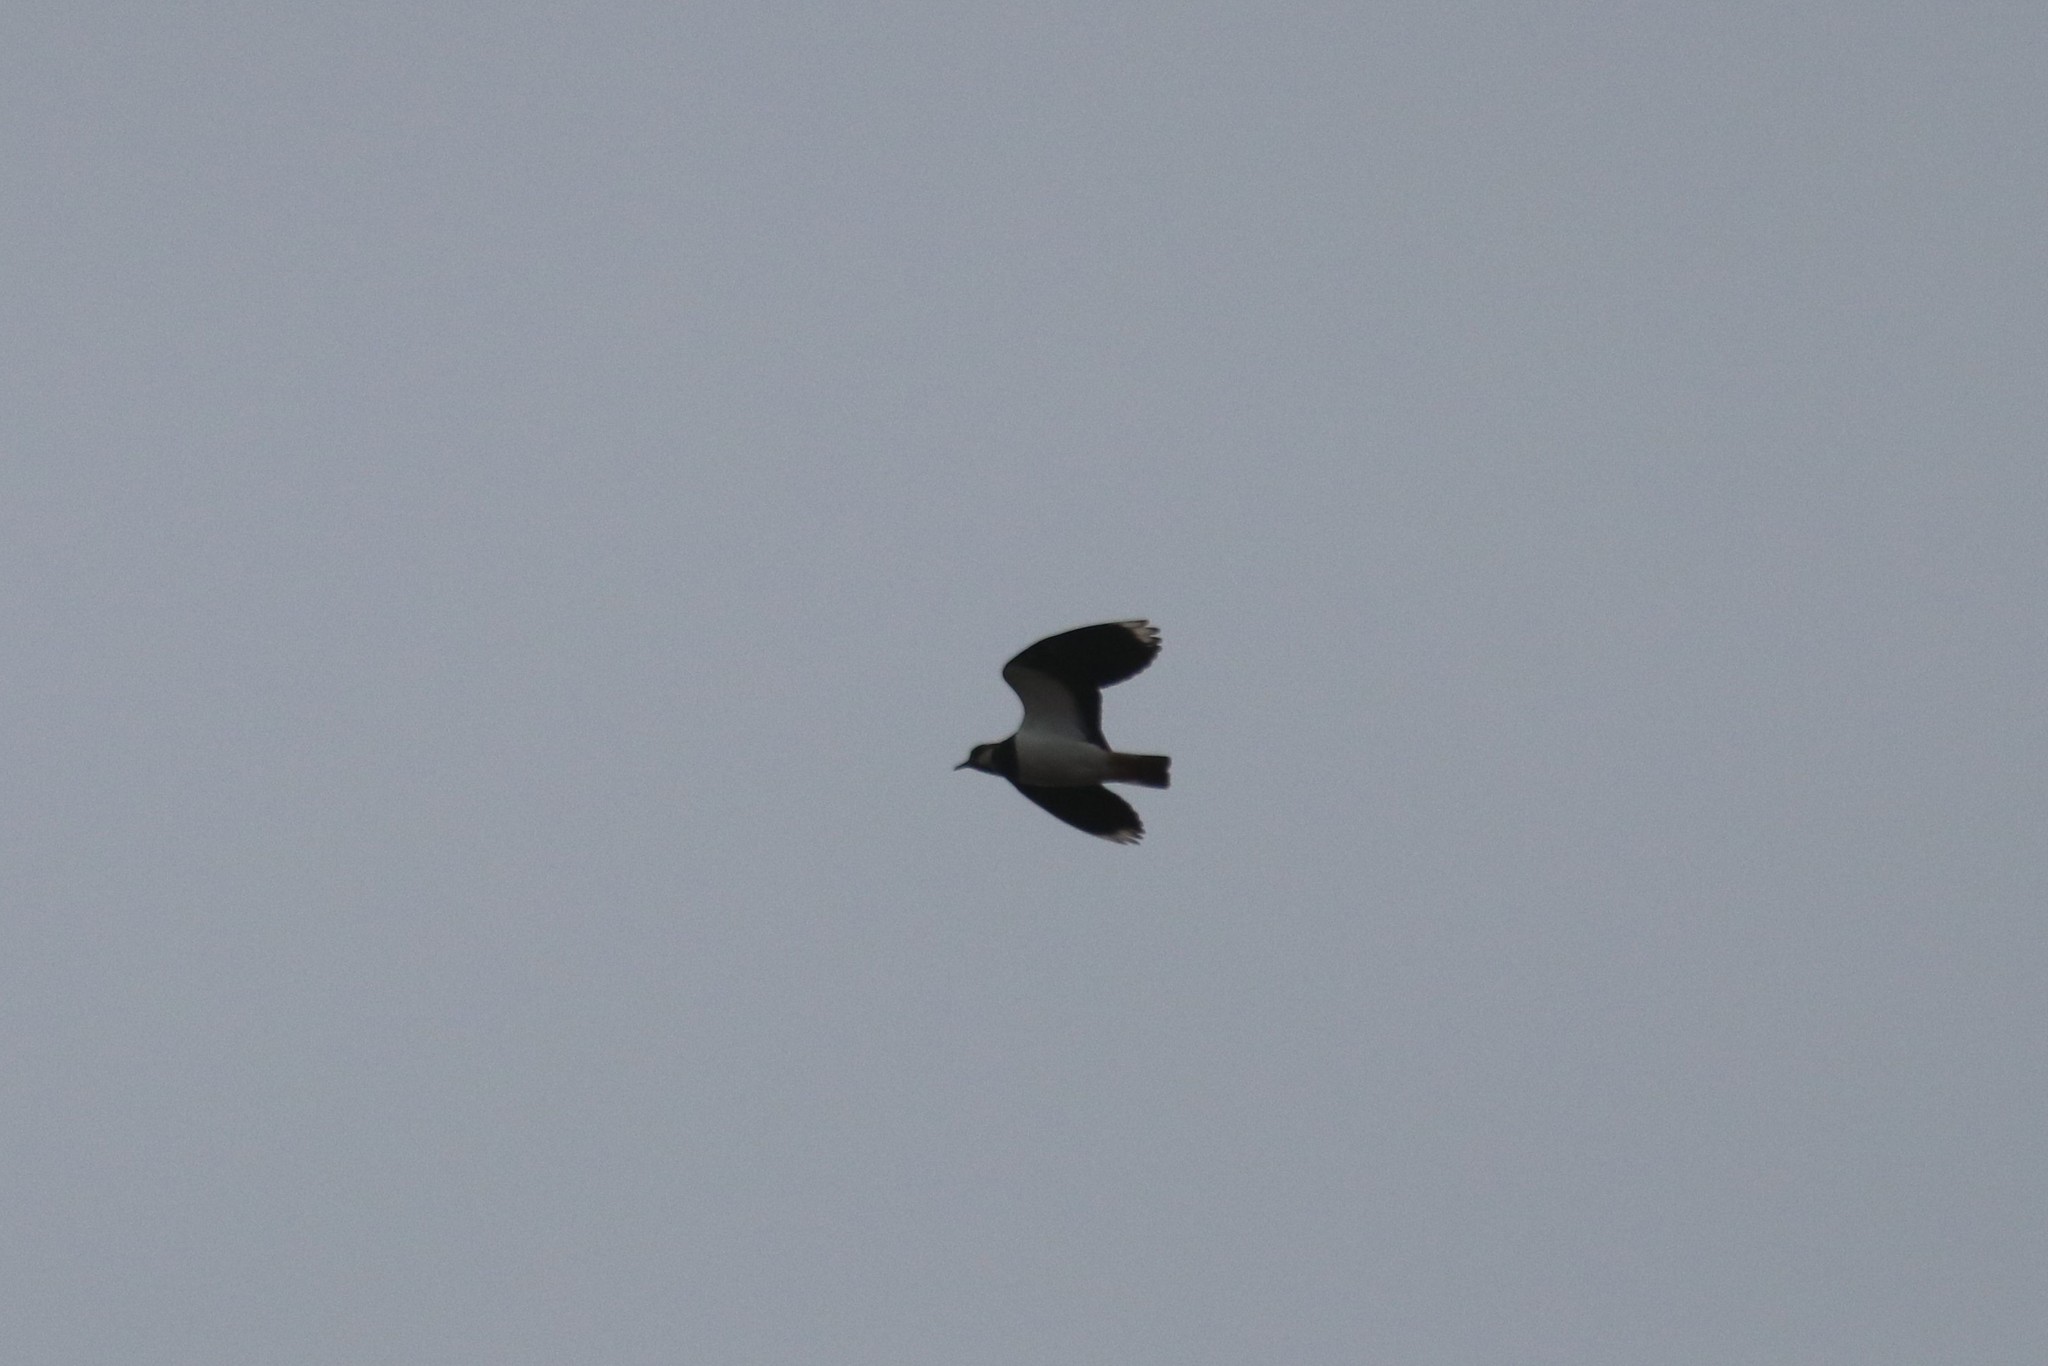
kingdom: Animalia
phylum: Chordata
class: Aves
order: Charadriiformes
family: Charadriidae
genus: Vanellus
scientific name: Vanellus vanellus
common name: Northern lapwing
